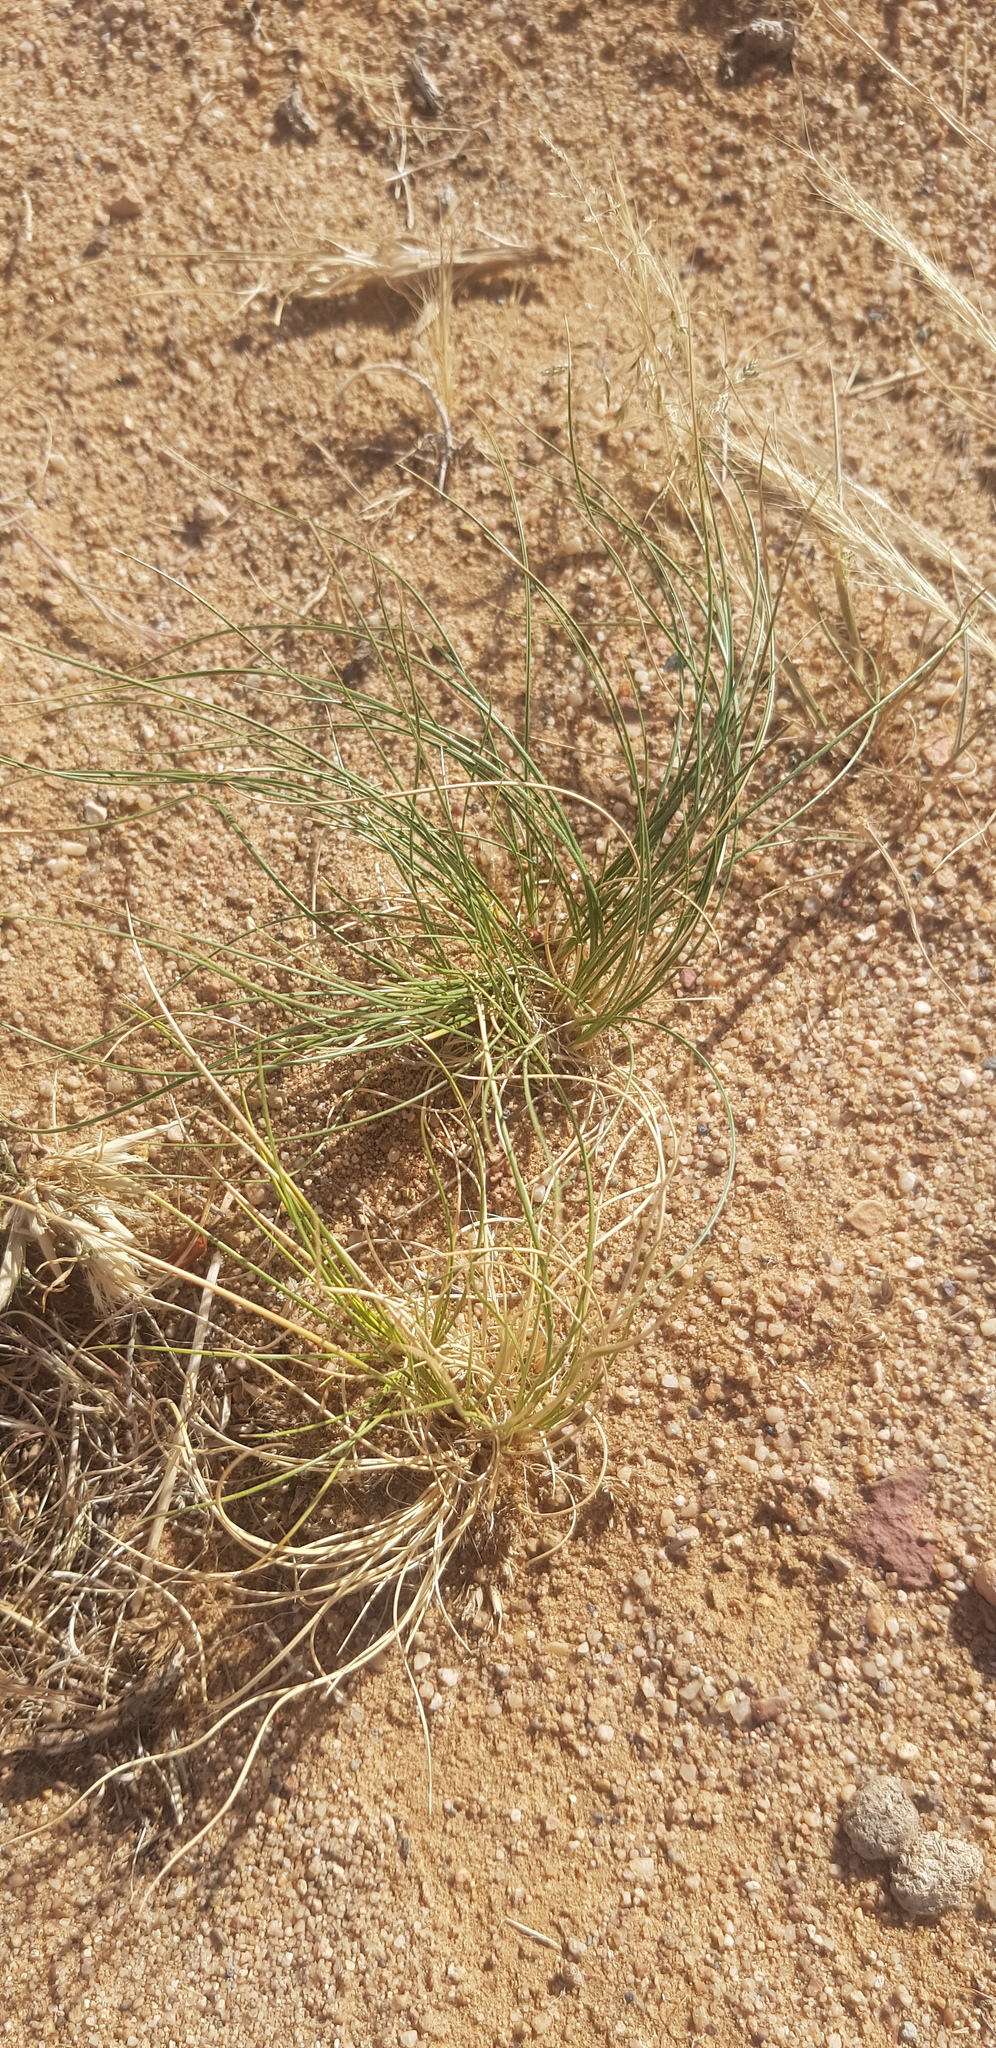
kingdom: Plantae
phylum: Tracheophyta
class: Liliopsida
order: Poales
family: Poaceae
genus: Stipa
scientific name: Stipa tianschanica
